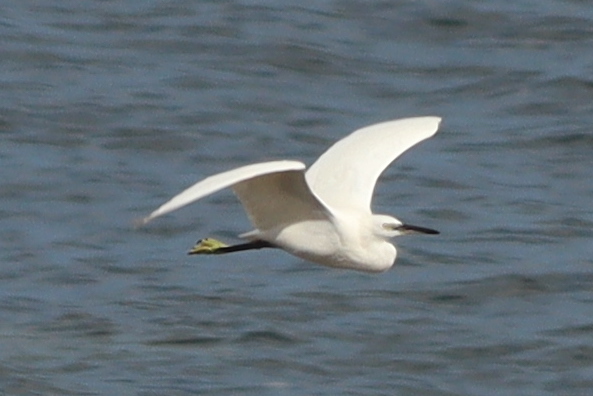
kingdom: Animalia
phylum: Chordata
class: Aves
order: Pelecaniformes
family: Ardeidae
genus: Egretta
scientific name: Egretta garzetta
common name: Little egret
